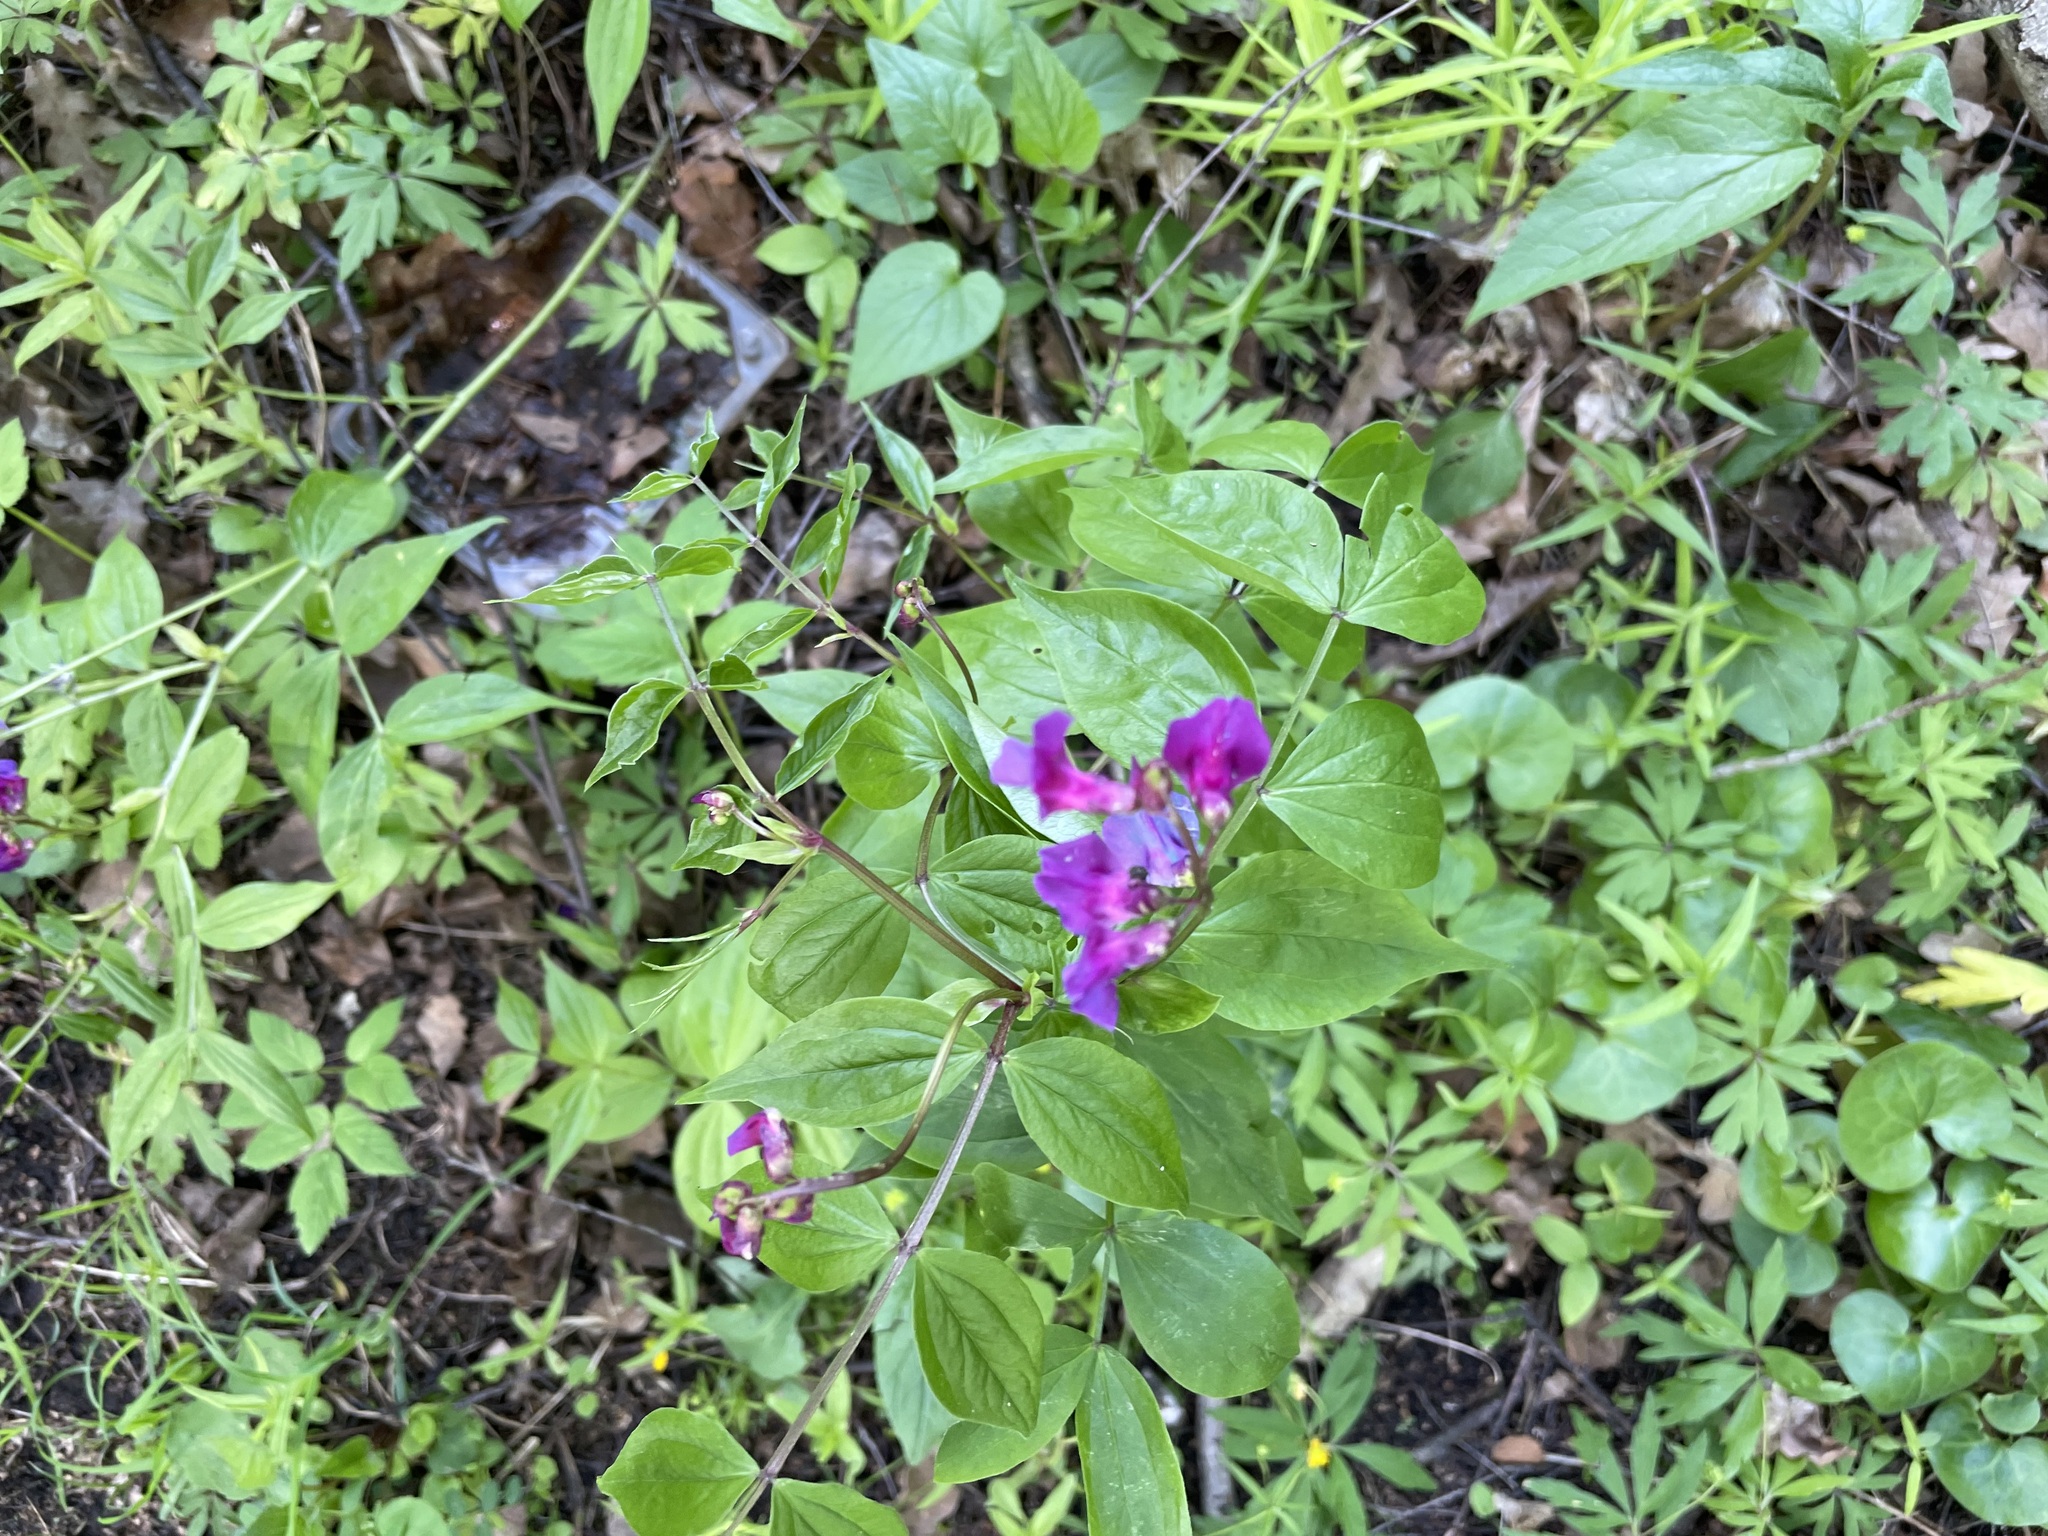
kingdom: Plantae
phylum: Tracheophyta
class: Magnoliopsida
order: Fabales
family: Fabaceae
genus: Lathyrus
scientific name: Lathyrus vernus
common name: Spring pea
